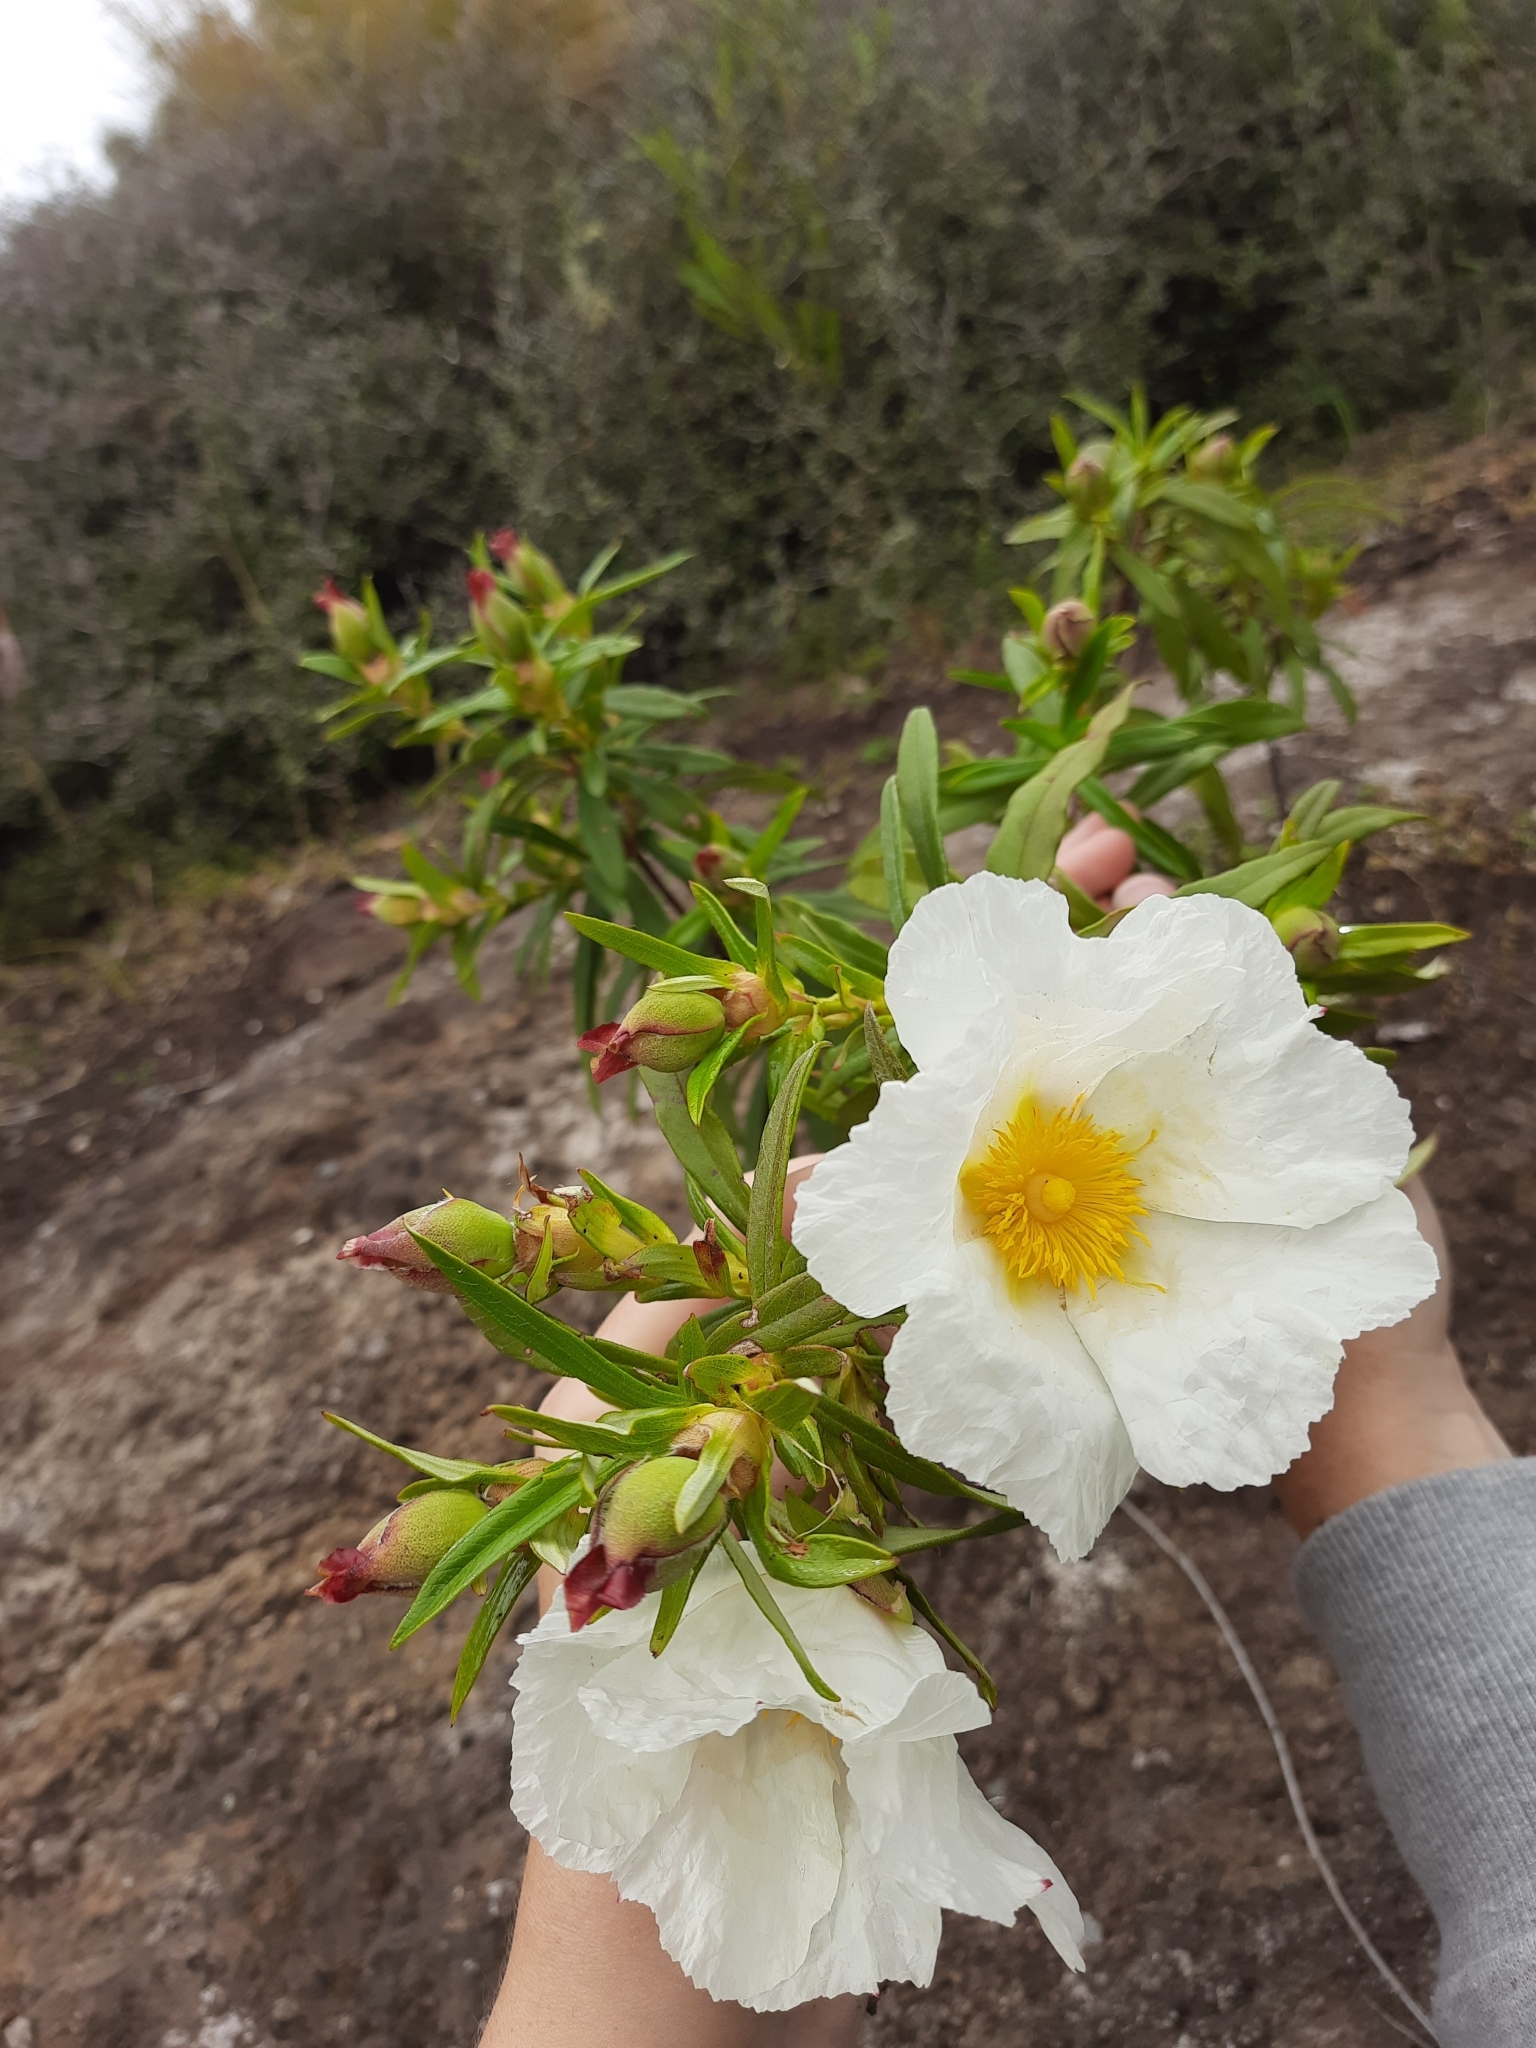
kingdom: Plantae
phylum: Tracheophyta
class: Magnoliopsida
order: Malvales
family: Cistaceae
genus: Cistus
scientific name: Cistus ladanifer
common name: Common gum cistus
